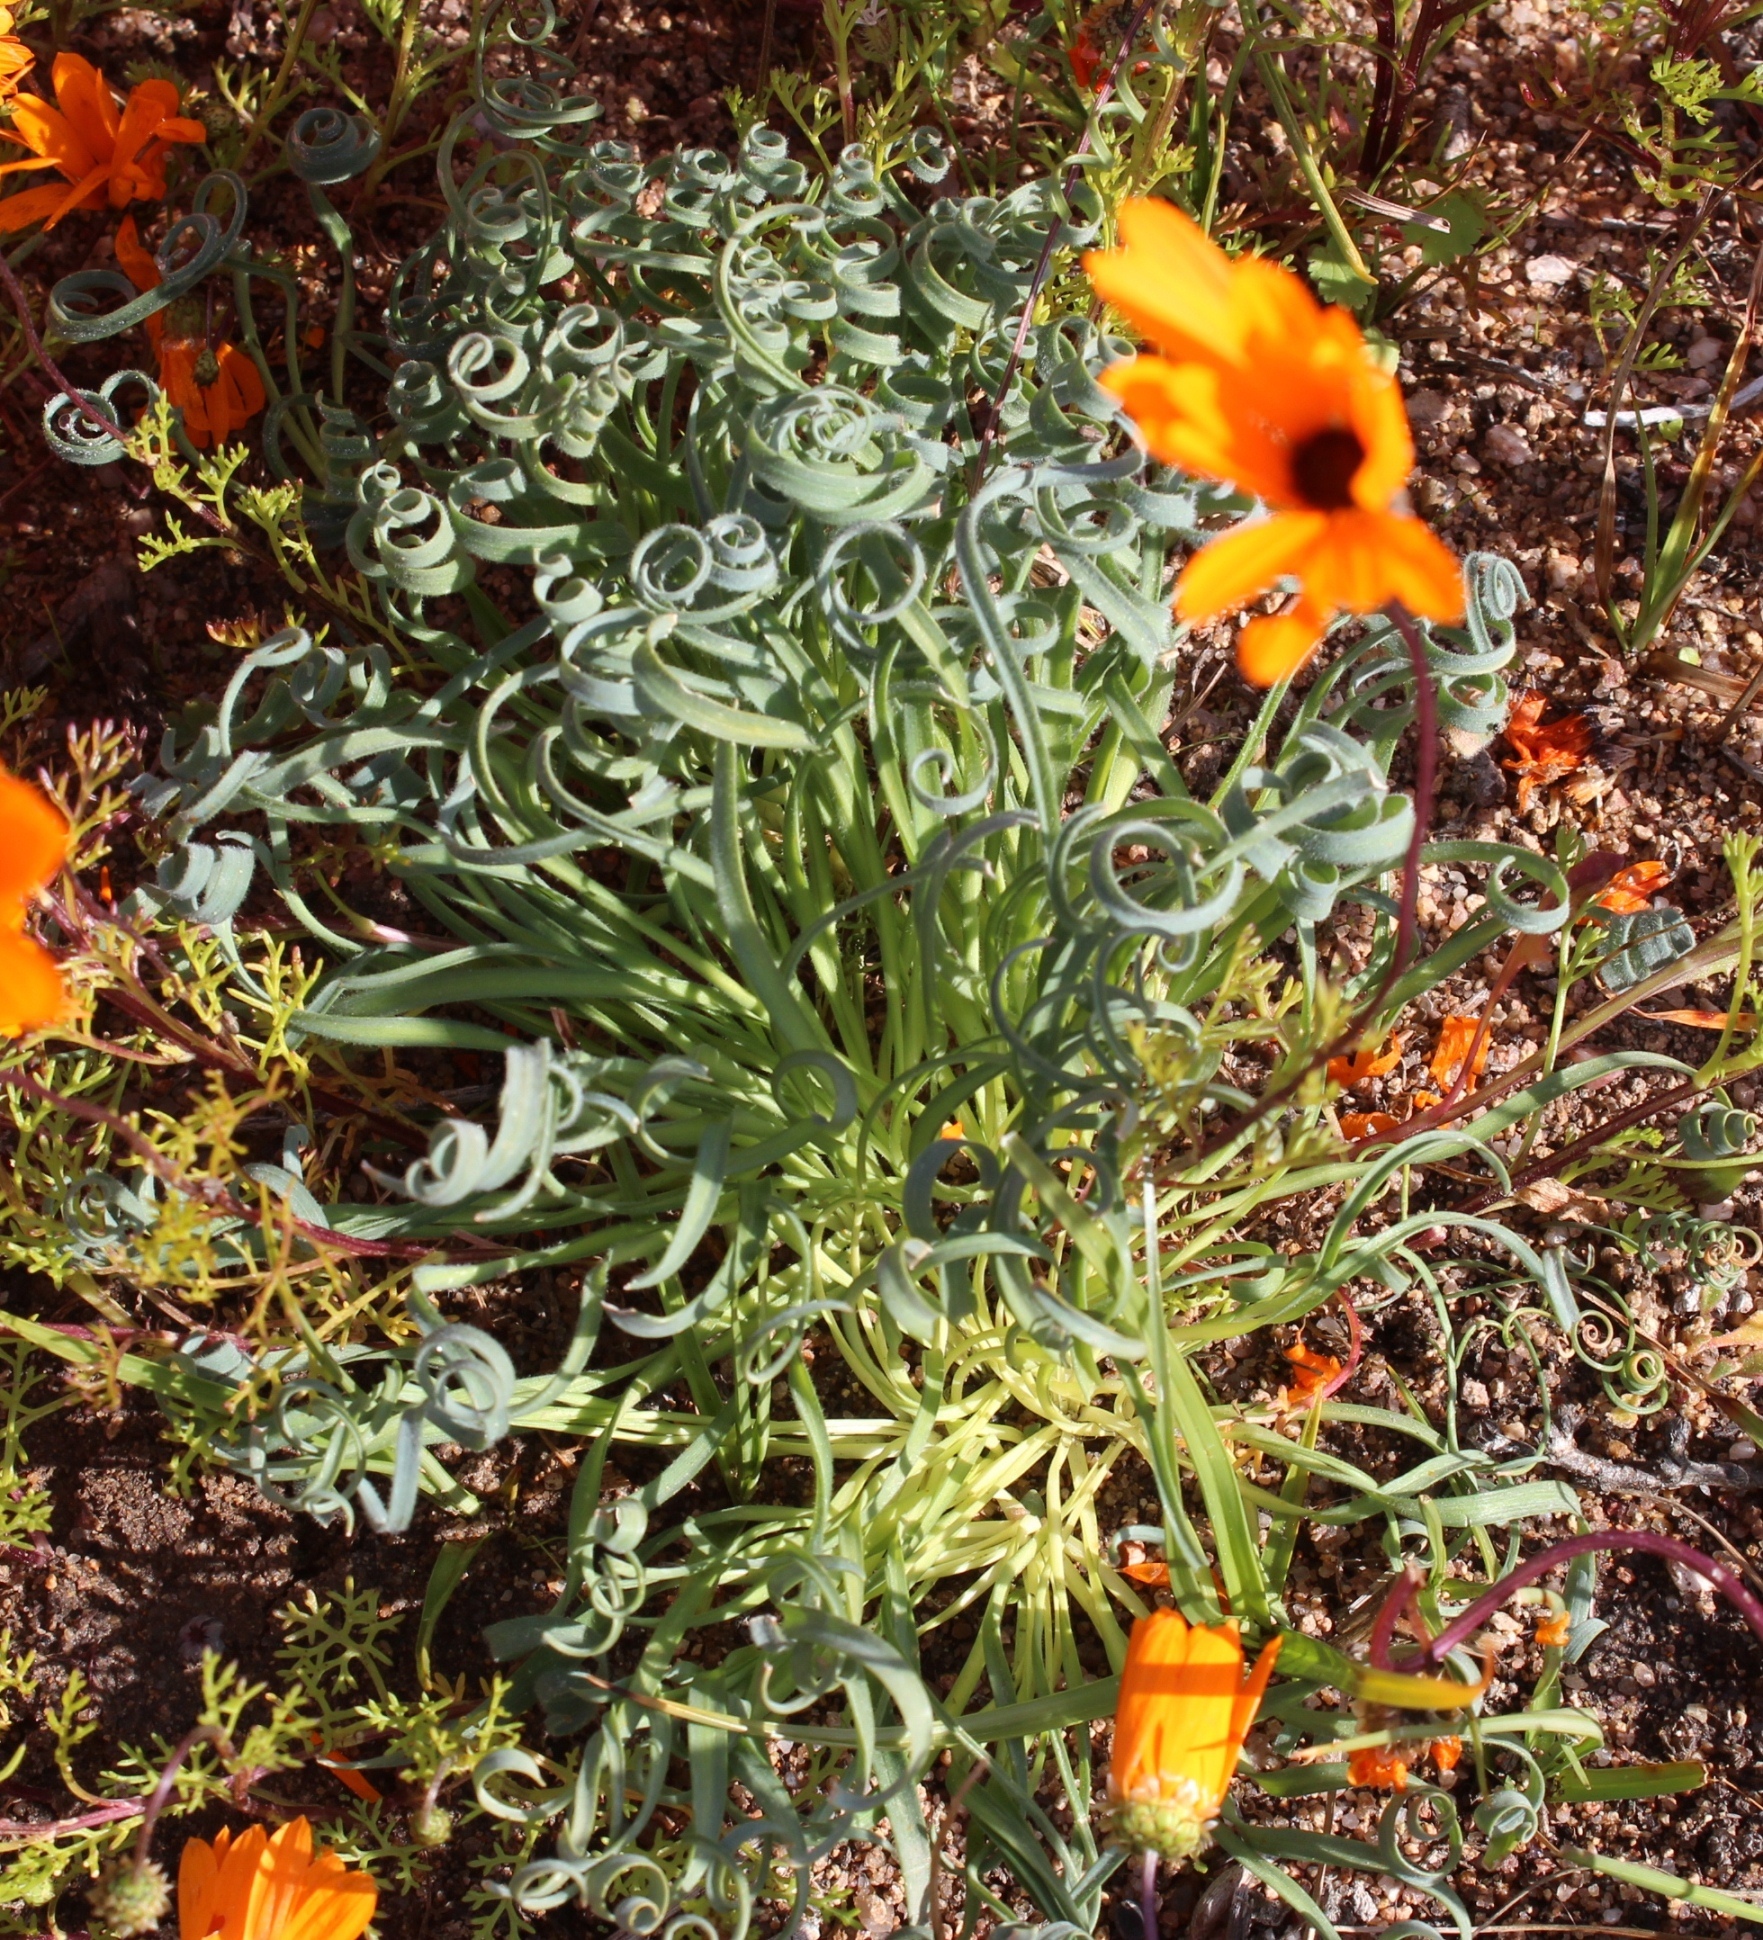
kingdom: Plantae
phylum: Tracheophyta
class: Liliopsida
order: Asparagales
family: Asparagaceae
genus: Albuca
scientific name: Albuca spiralis
